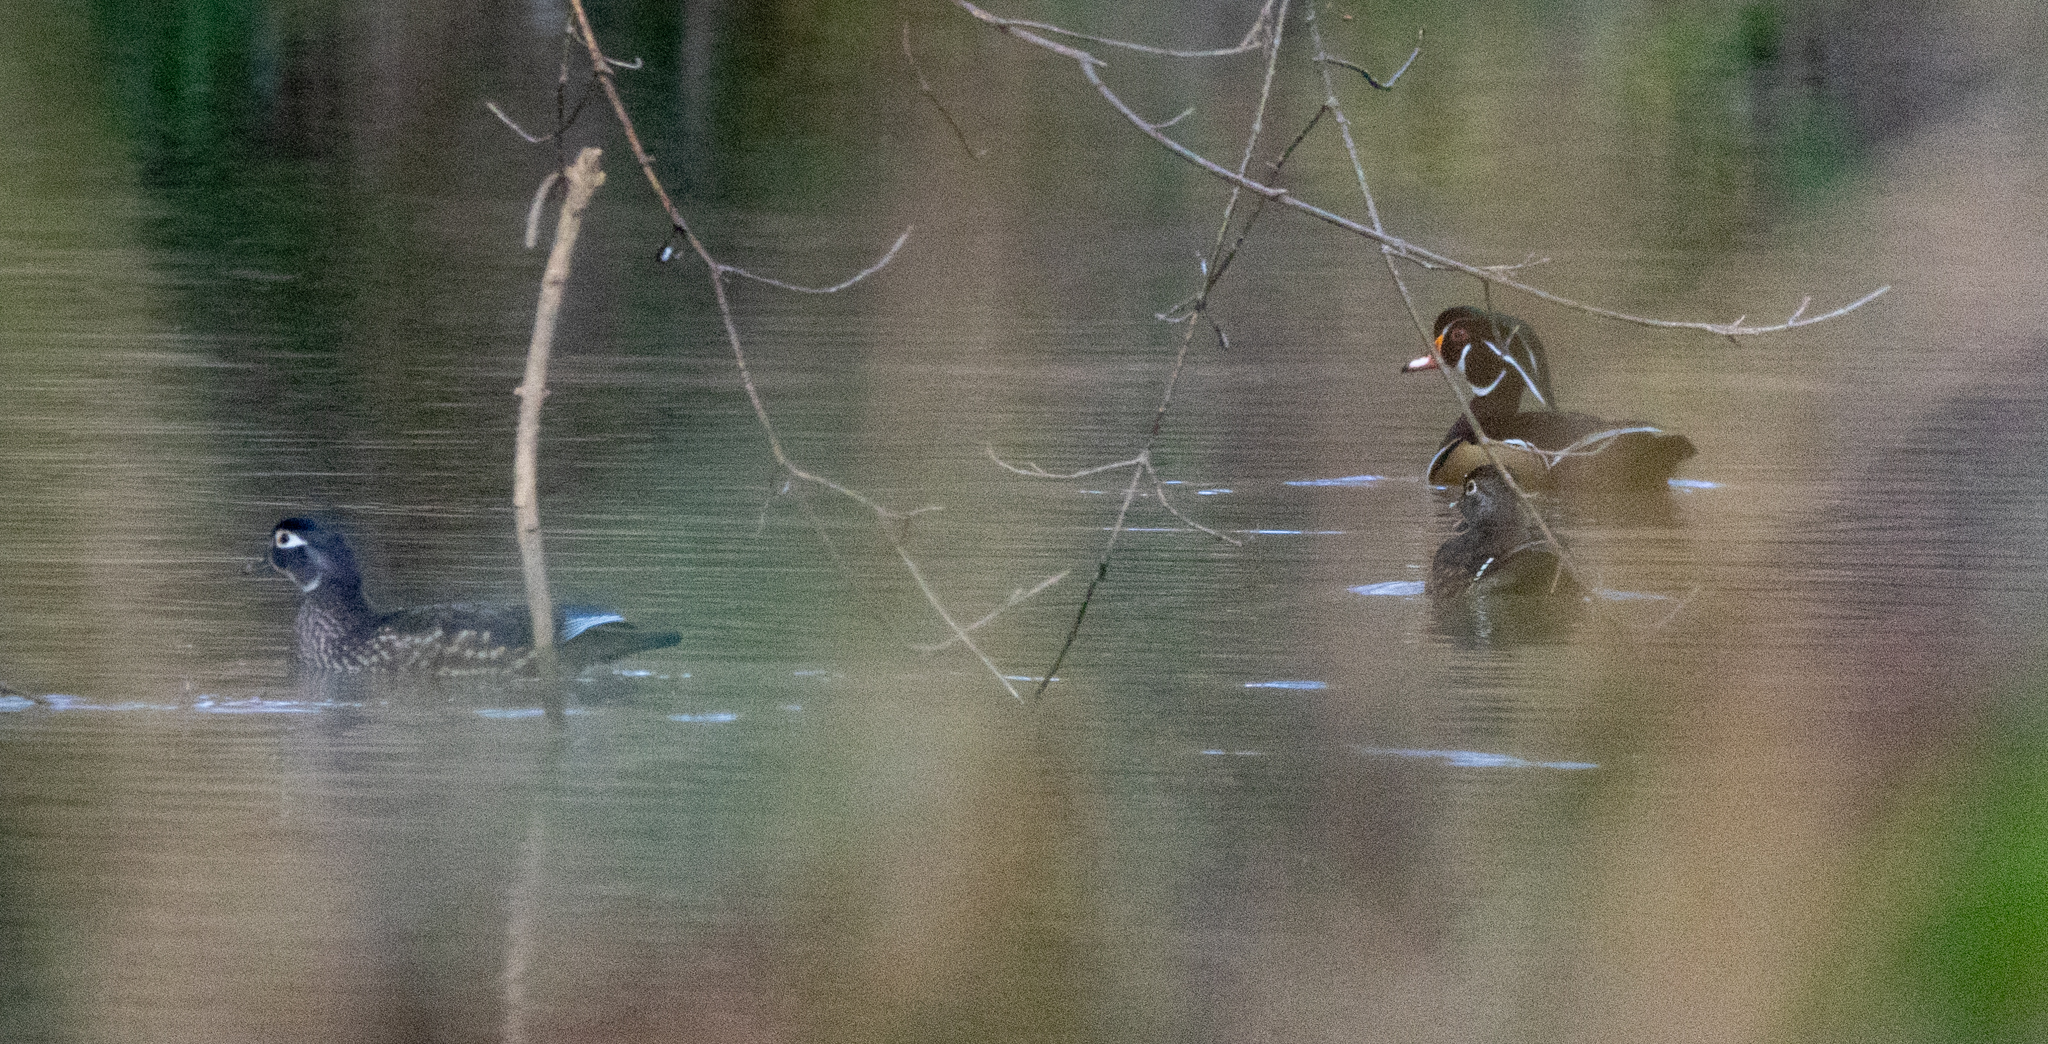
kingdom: Animalia
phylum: Chordata
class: Aves
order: Anseriformes
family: Anatidae
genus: Aix
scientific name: Aix sponsa
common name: Wood duck
